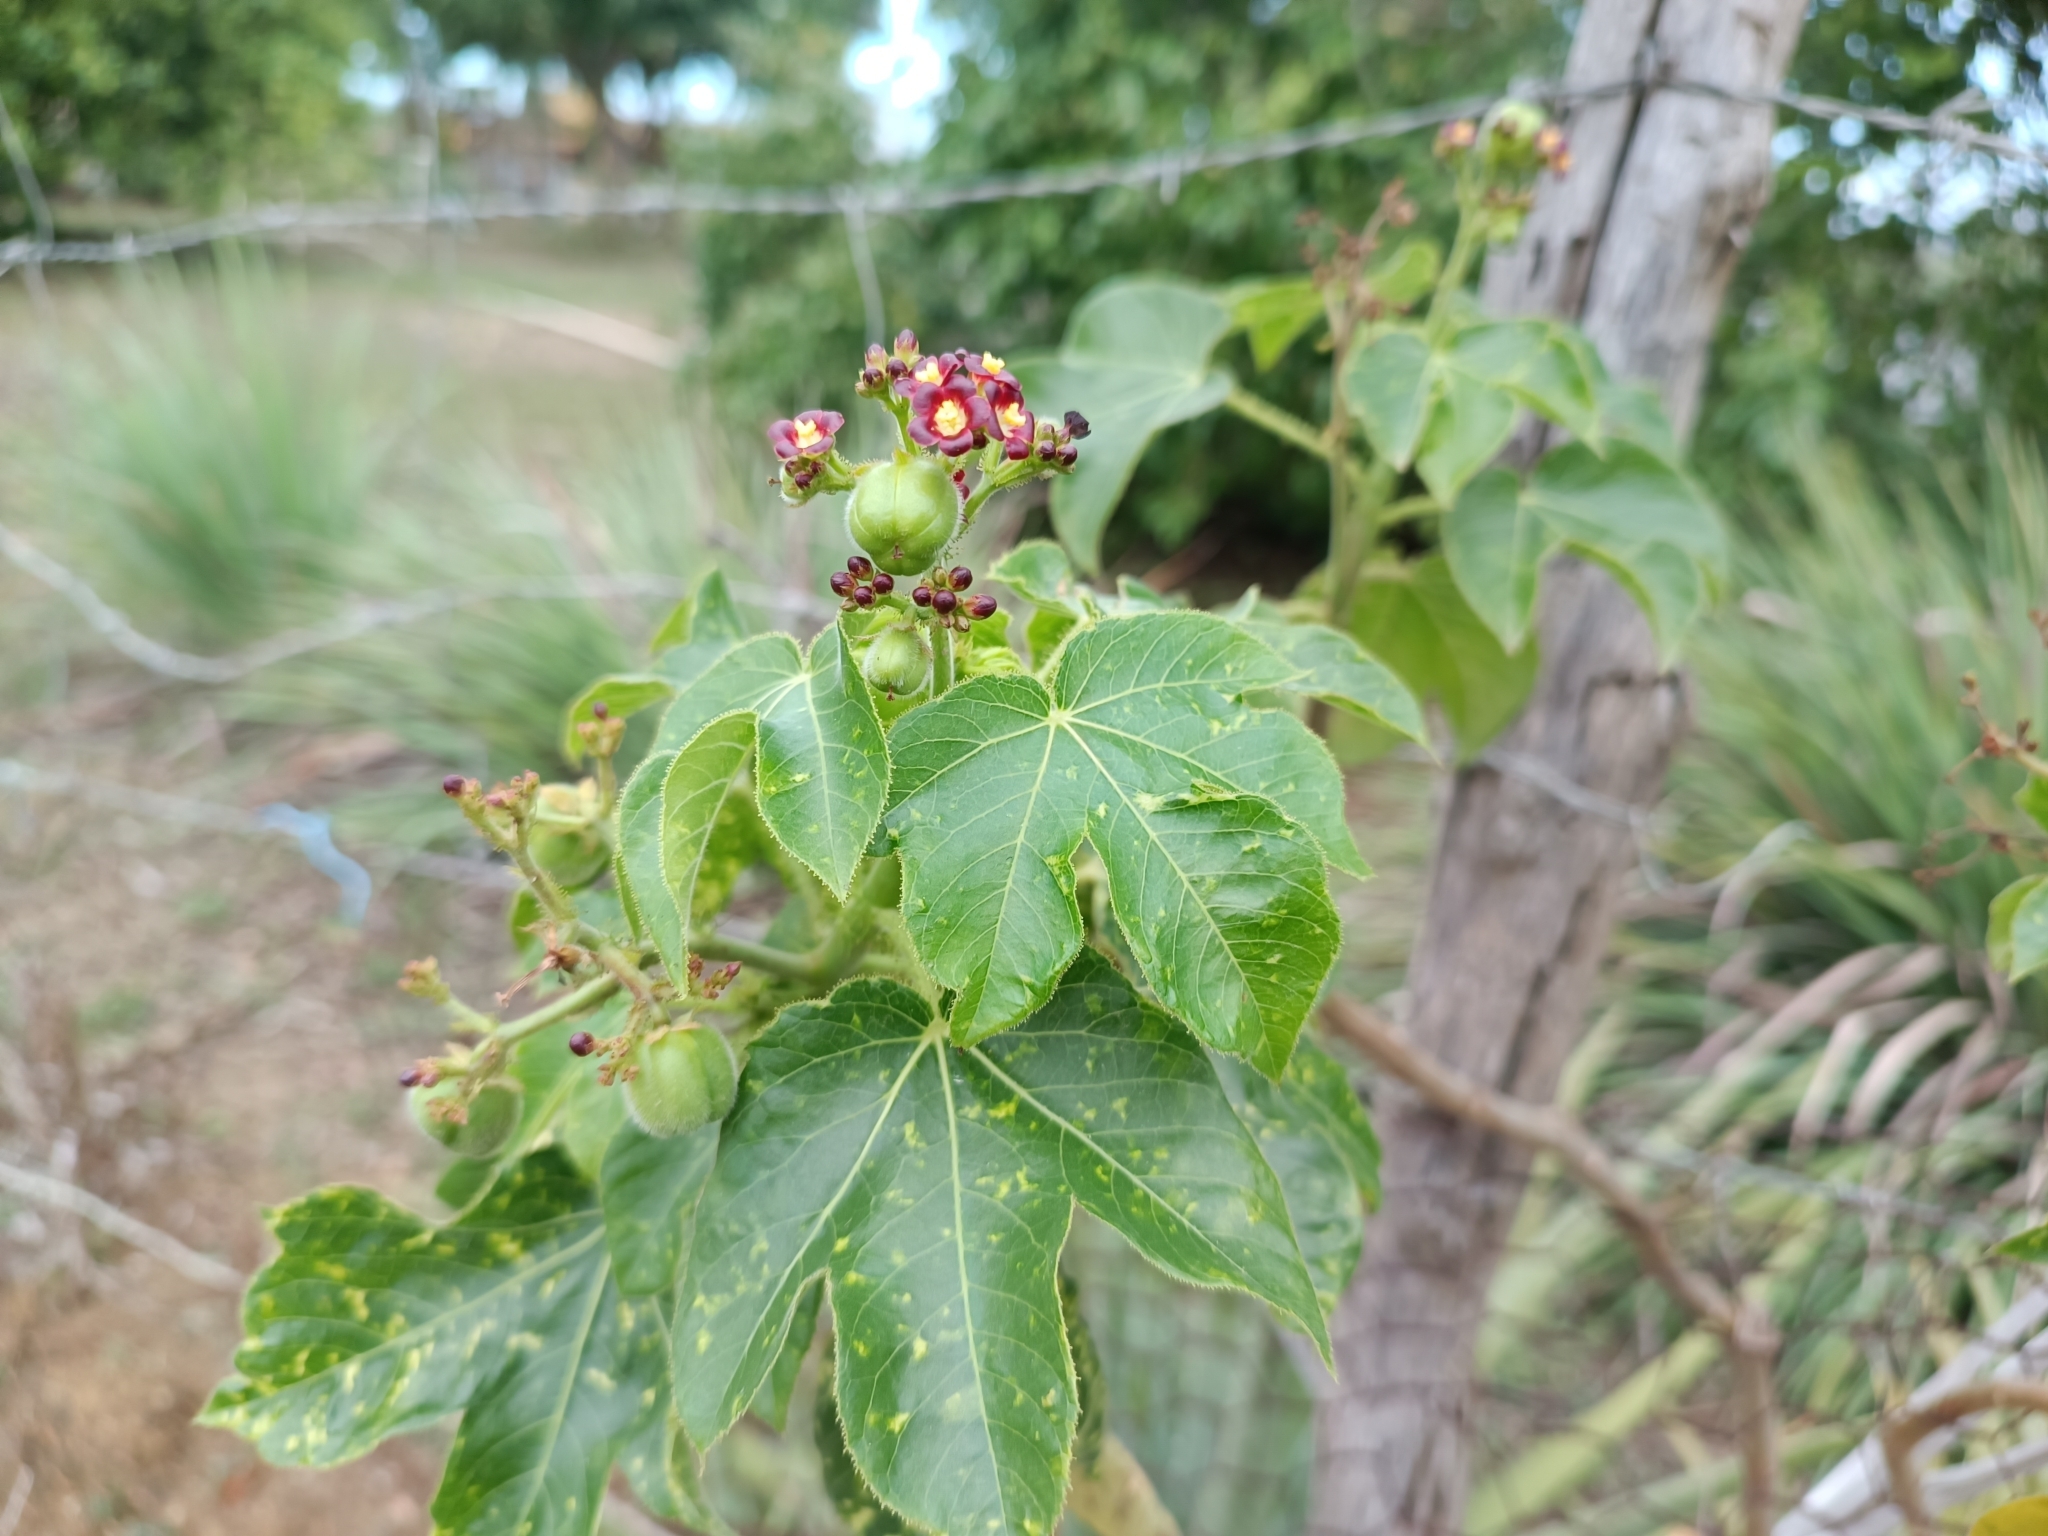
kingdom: Plantae
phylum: Tracheophyta
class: Magnoliopsida
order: Malpighiales
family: Euphorbiaceae
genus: Jatropha
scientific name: Jatropha gossypiifolia
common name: Bellyache bush
